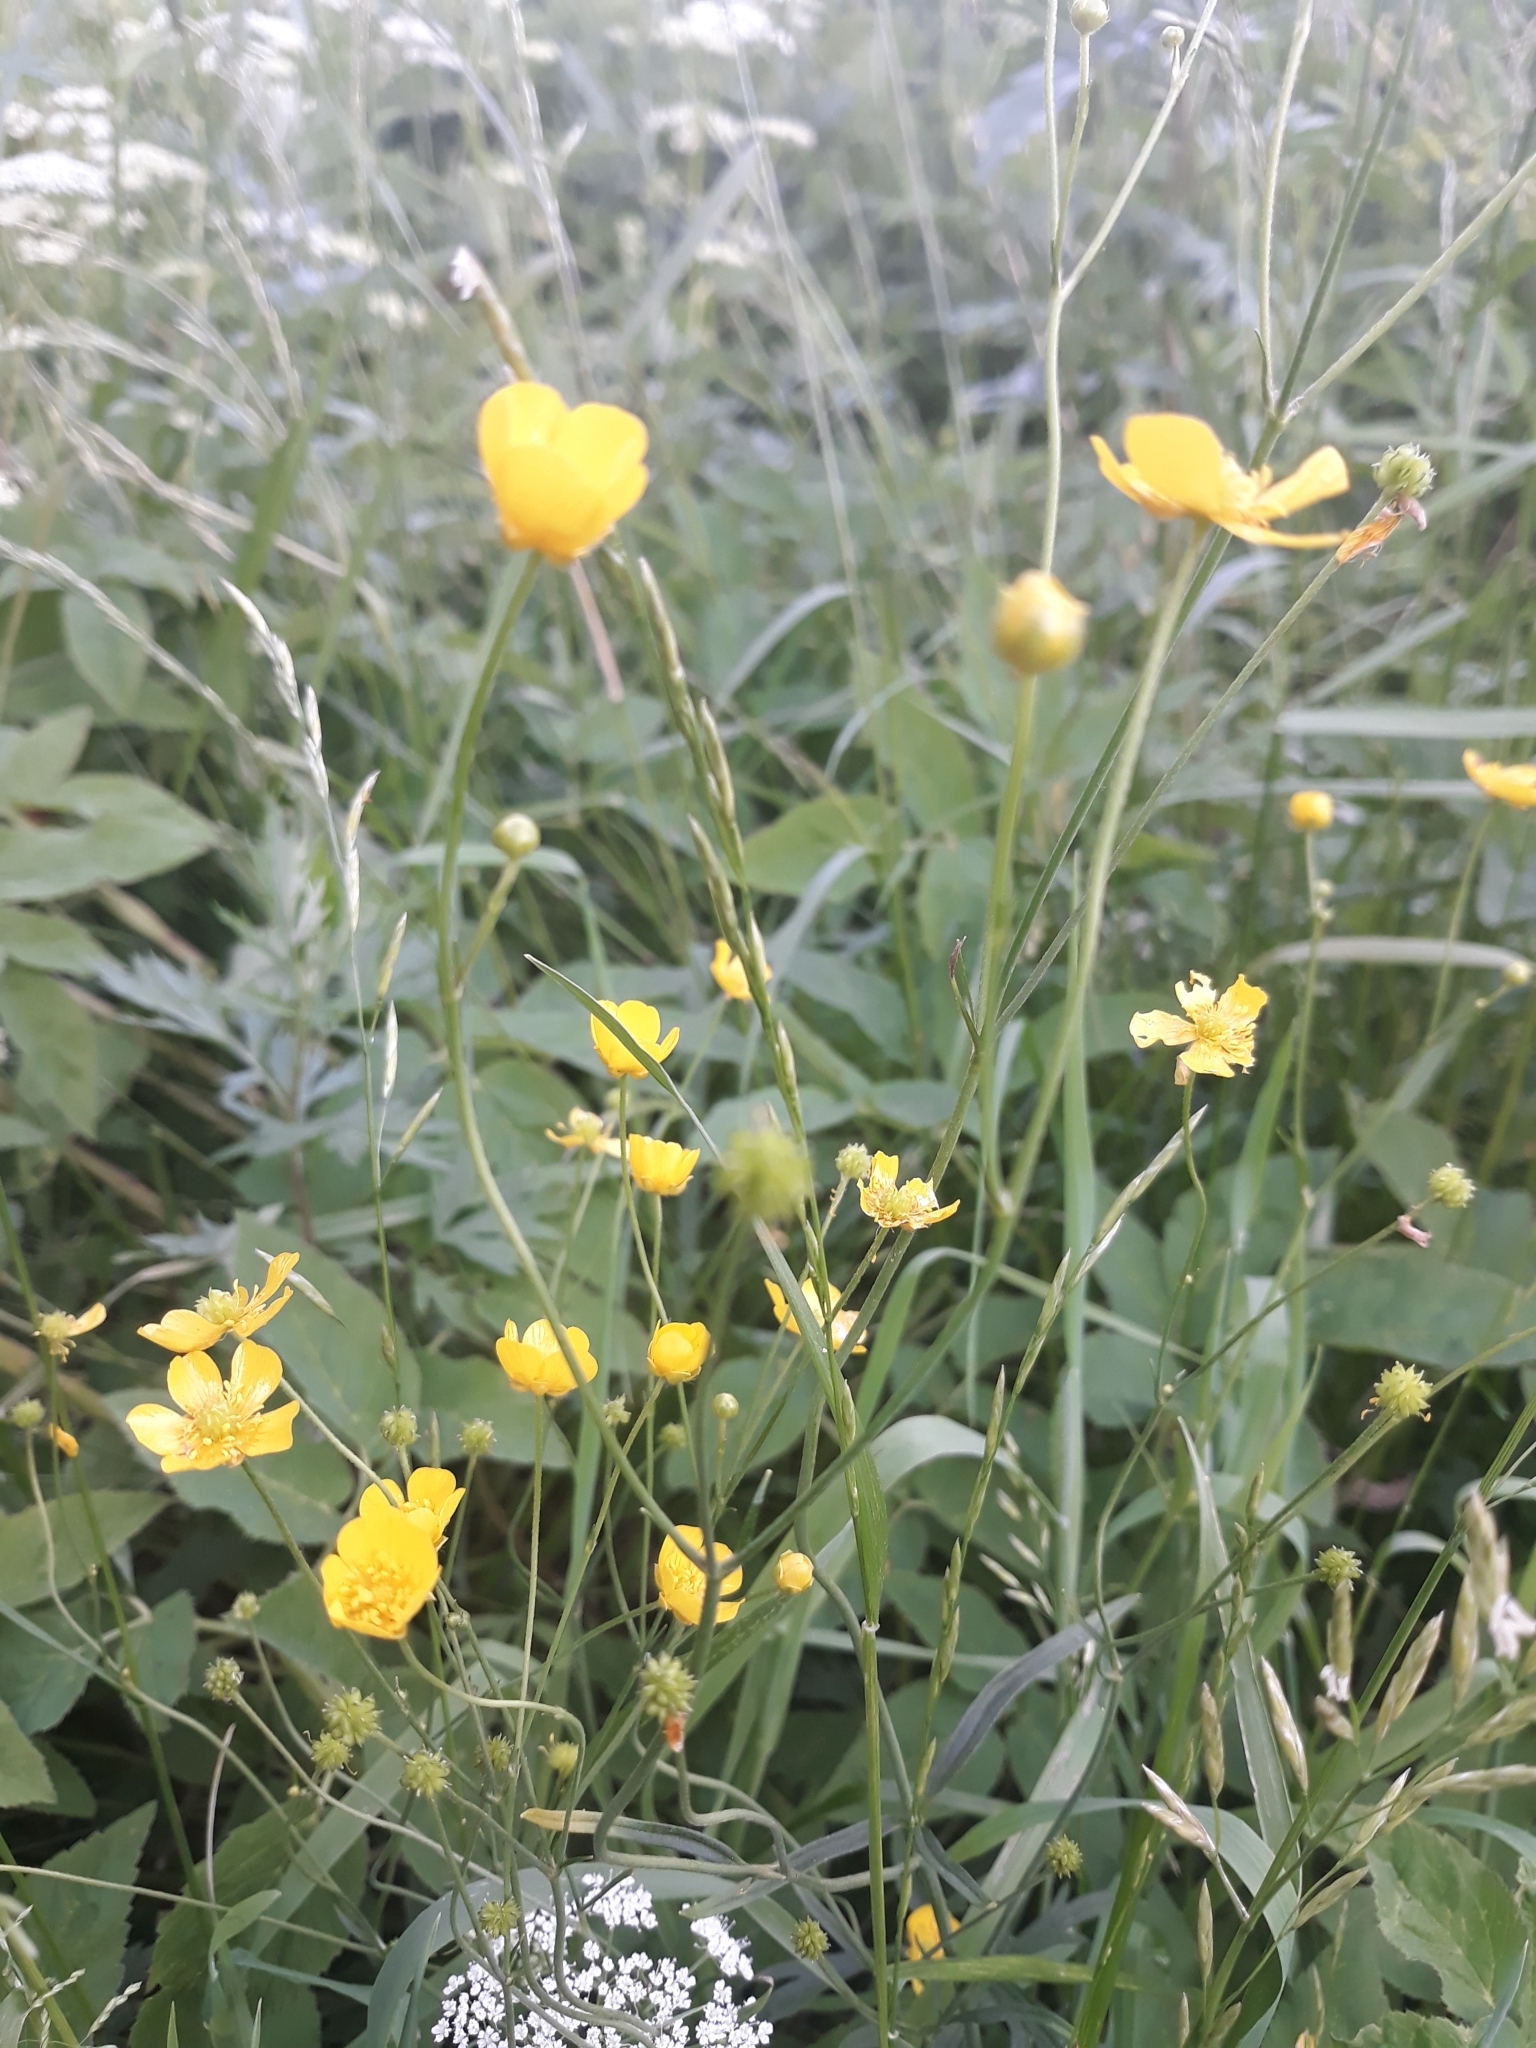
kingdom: Plantae
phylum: Tracheophyta
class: Magnoliopsida
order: Ranunculales
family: Ranunculaceae
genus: Ranunculus
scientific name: Ranunculus acris
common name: Meadow buttercup
